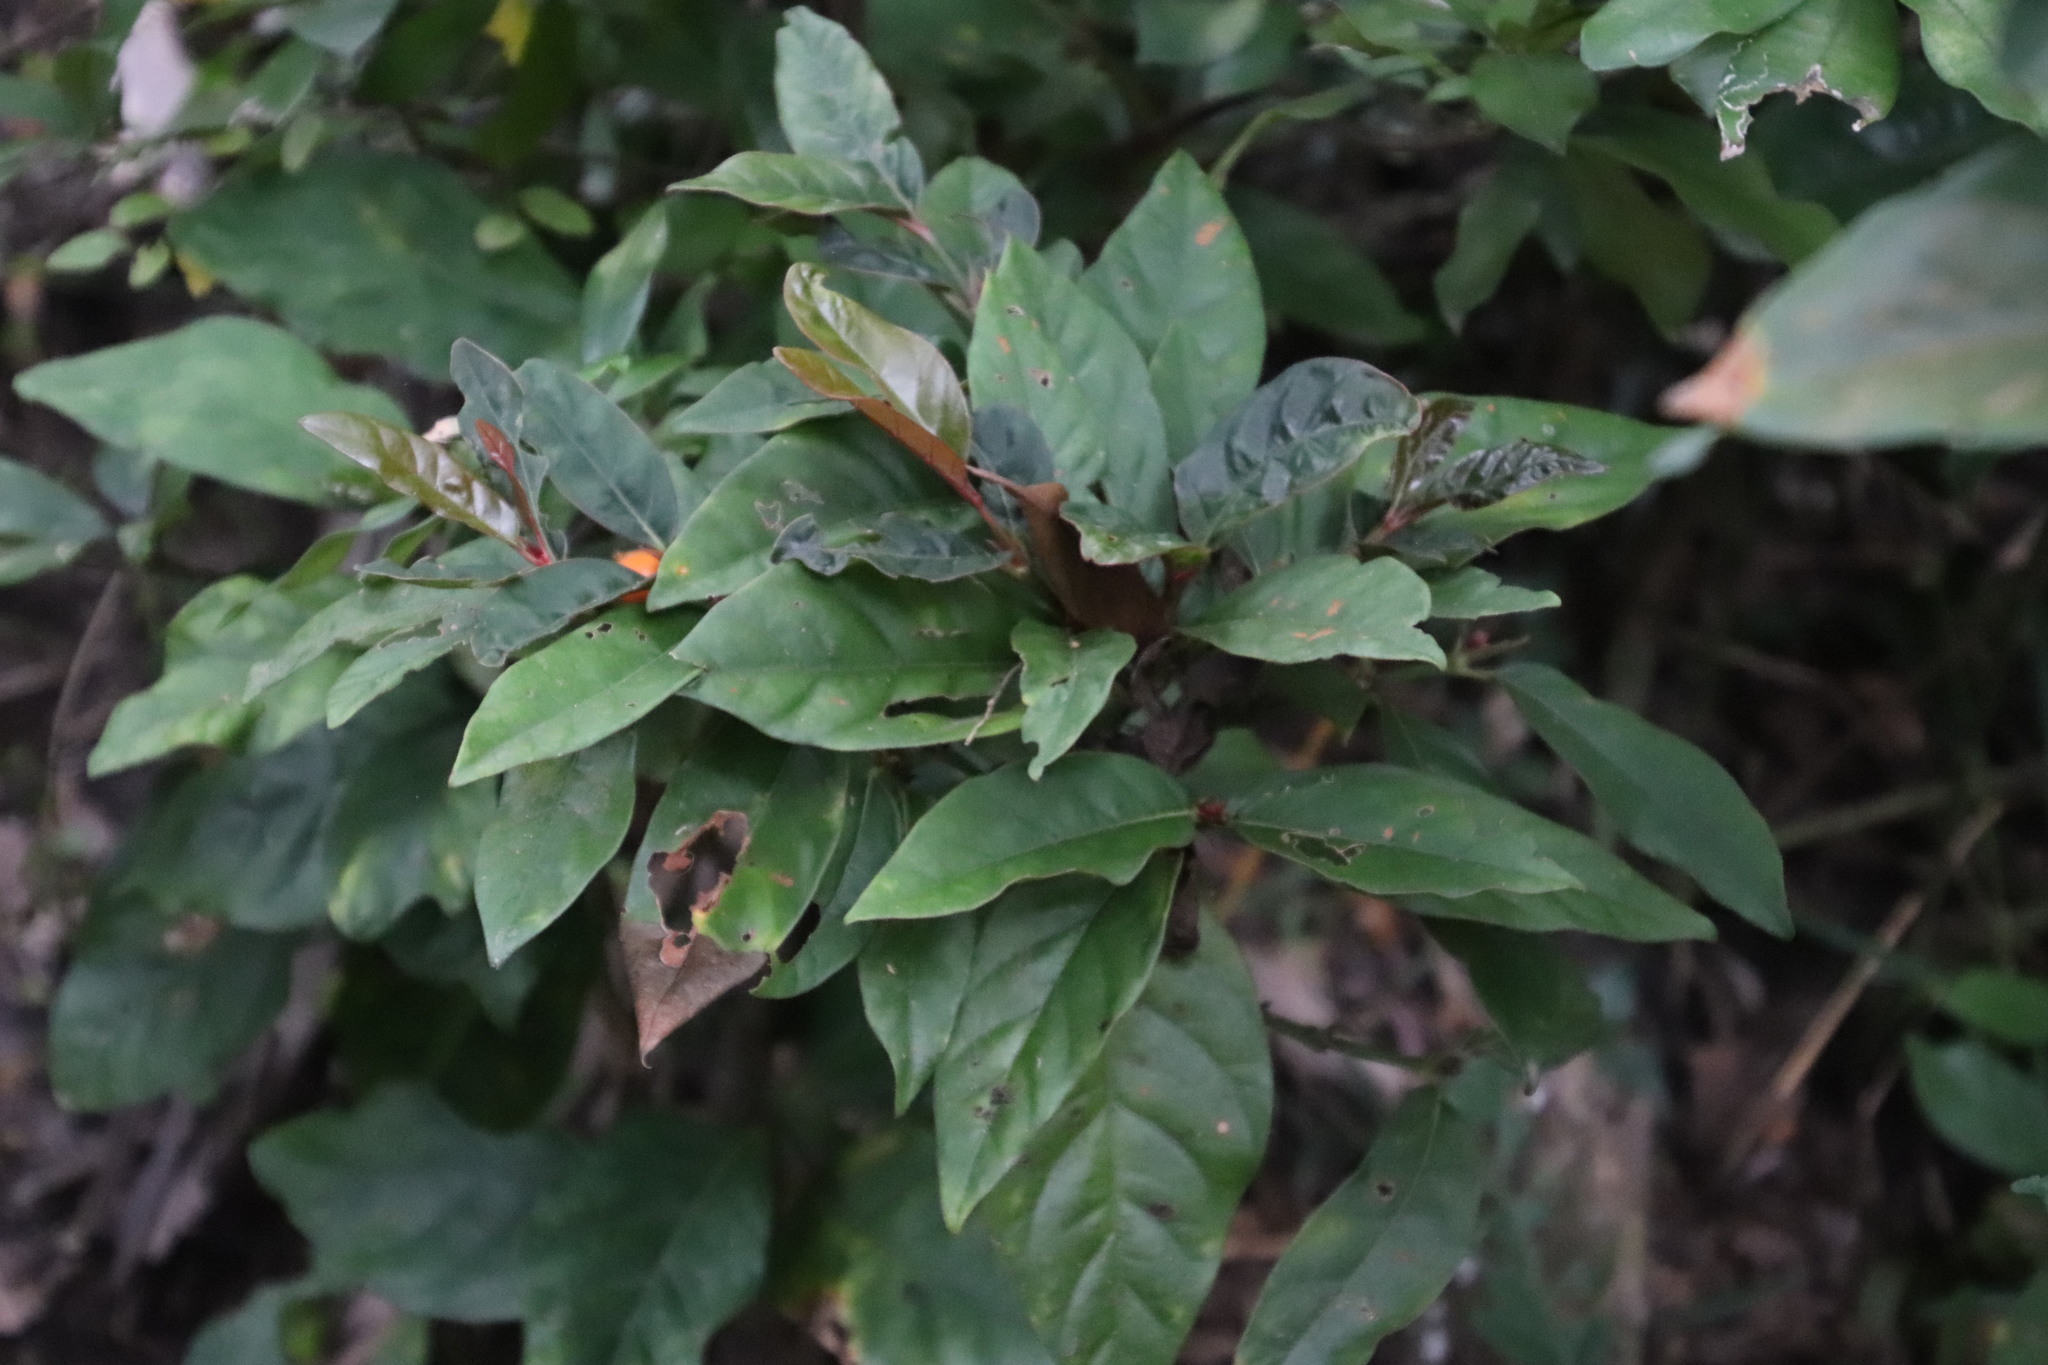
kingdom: Plantae
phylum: Tracheophyta
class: Magnoliopsida
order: Gentianales
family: Rubiaceae
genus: Mitriostigma
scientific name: Mitriostigma axillare
